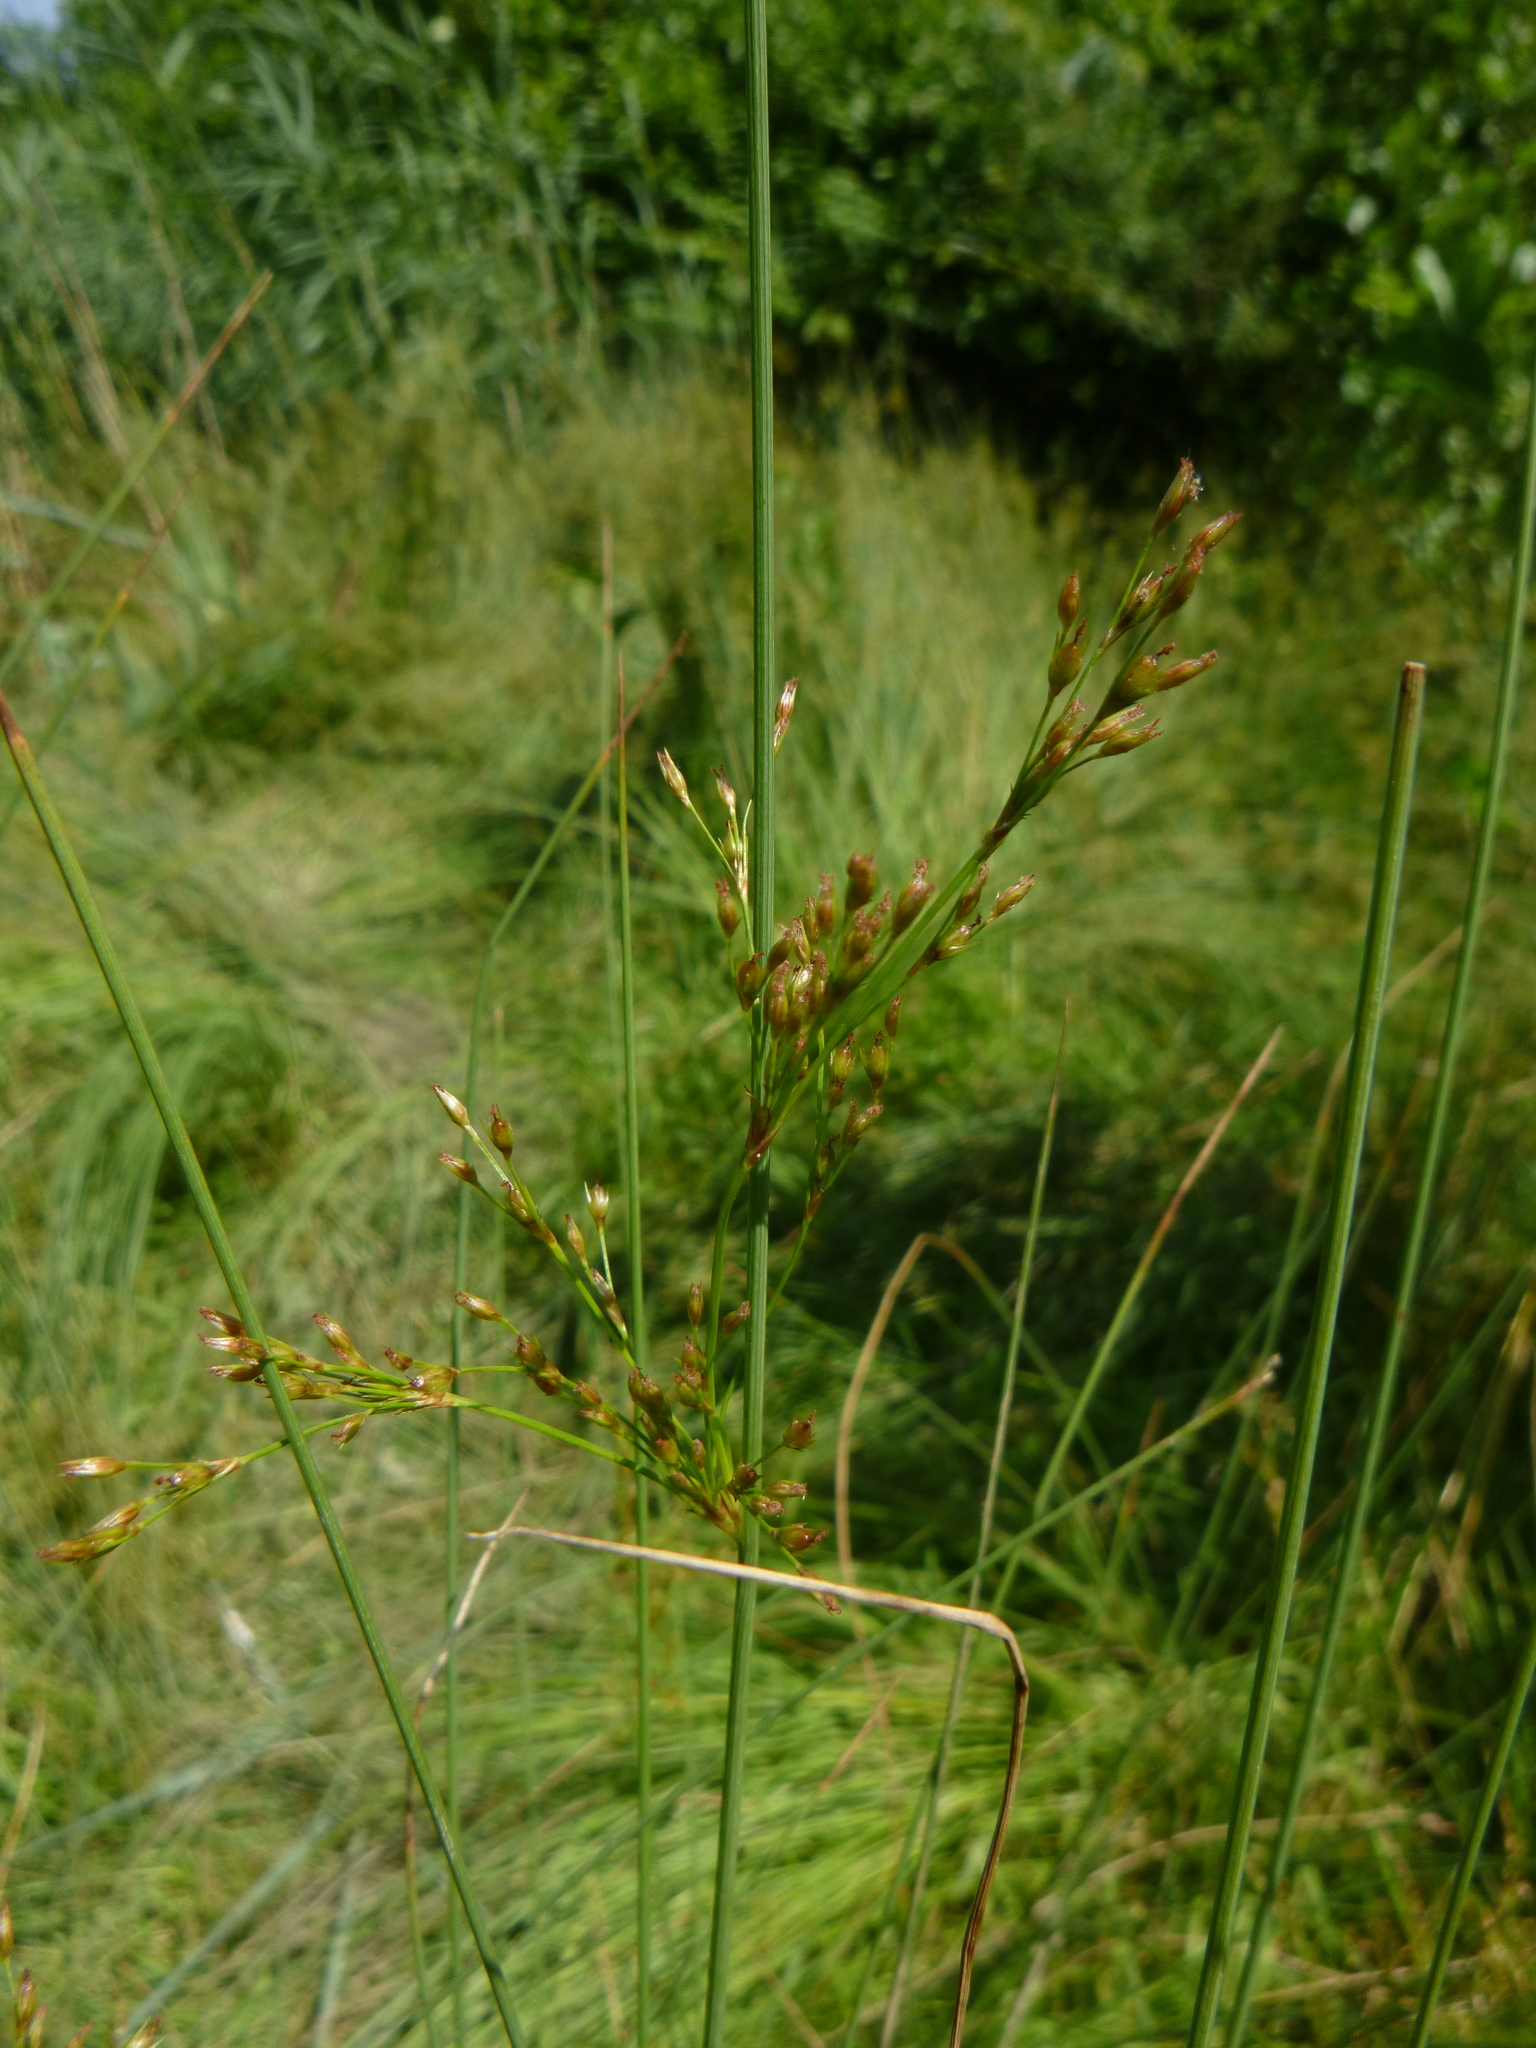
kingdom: Plantae
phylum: Tracheophyta
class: Liliopsida
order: Poales
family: Juncaceae
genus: Juncus
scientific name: Juncus inflexus
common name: Hard rush
